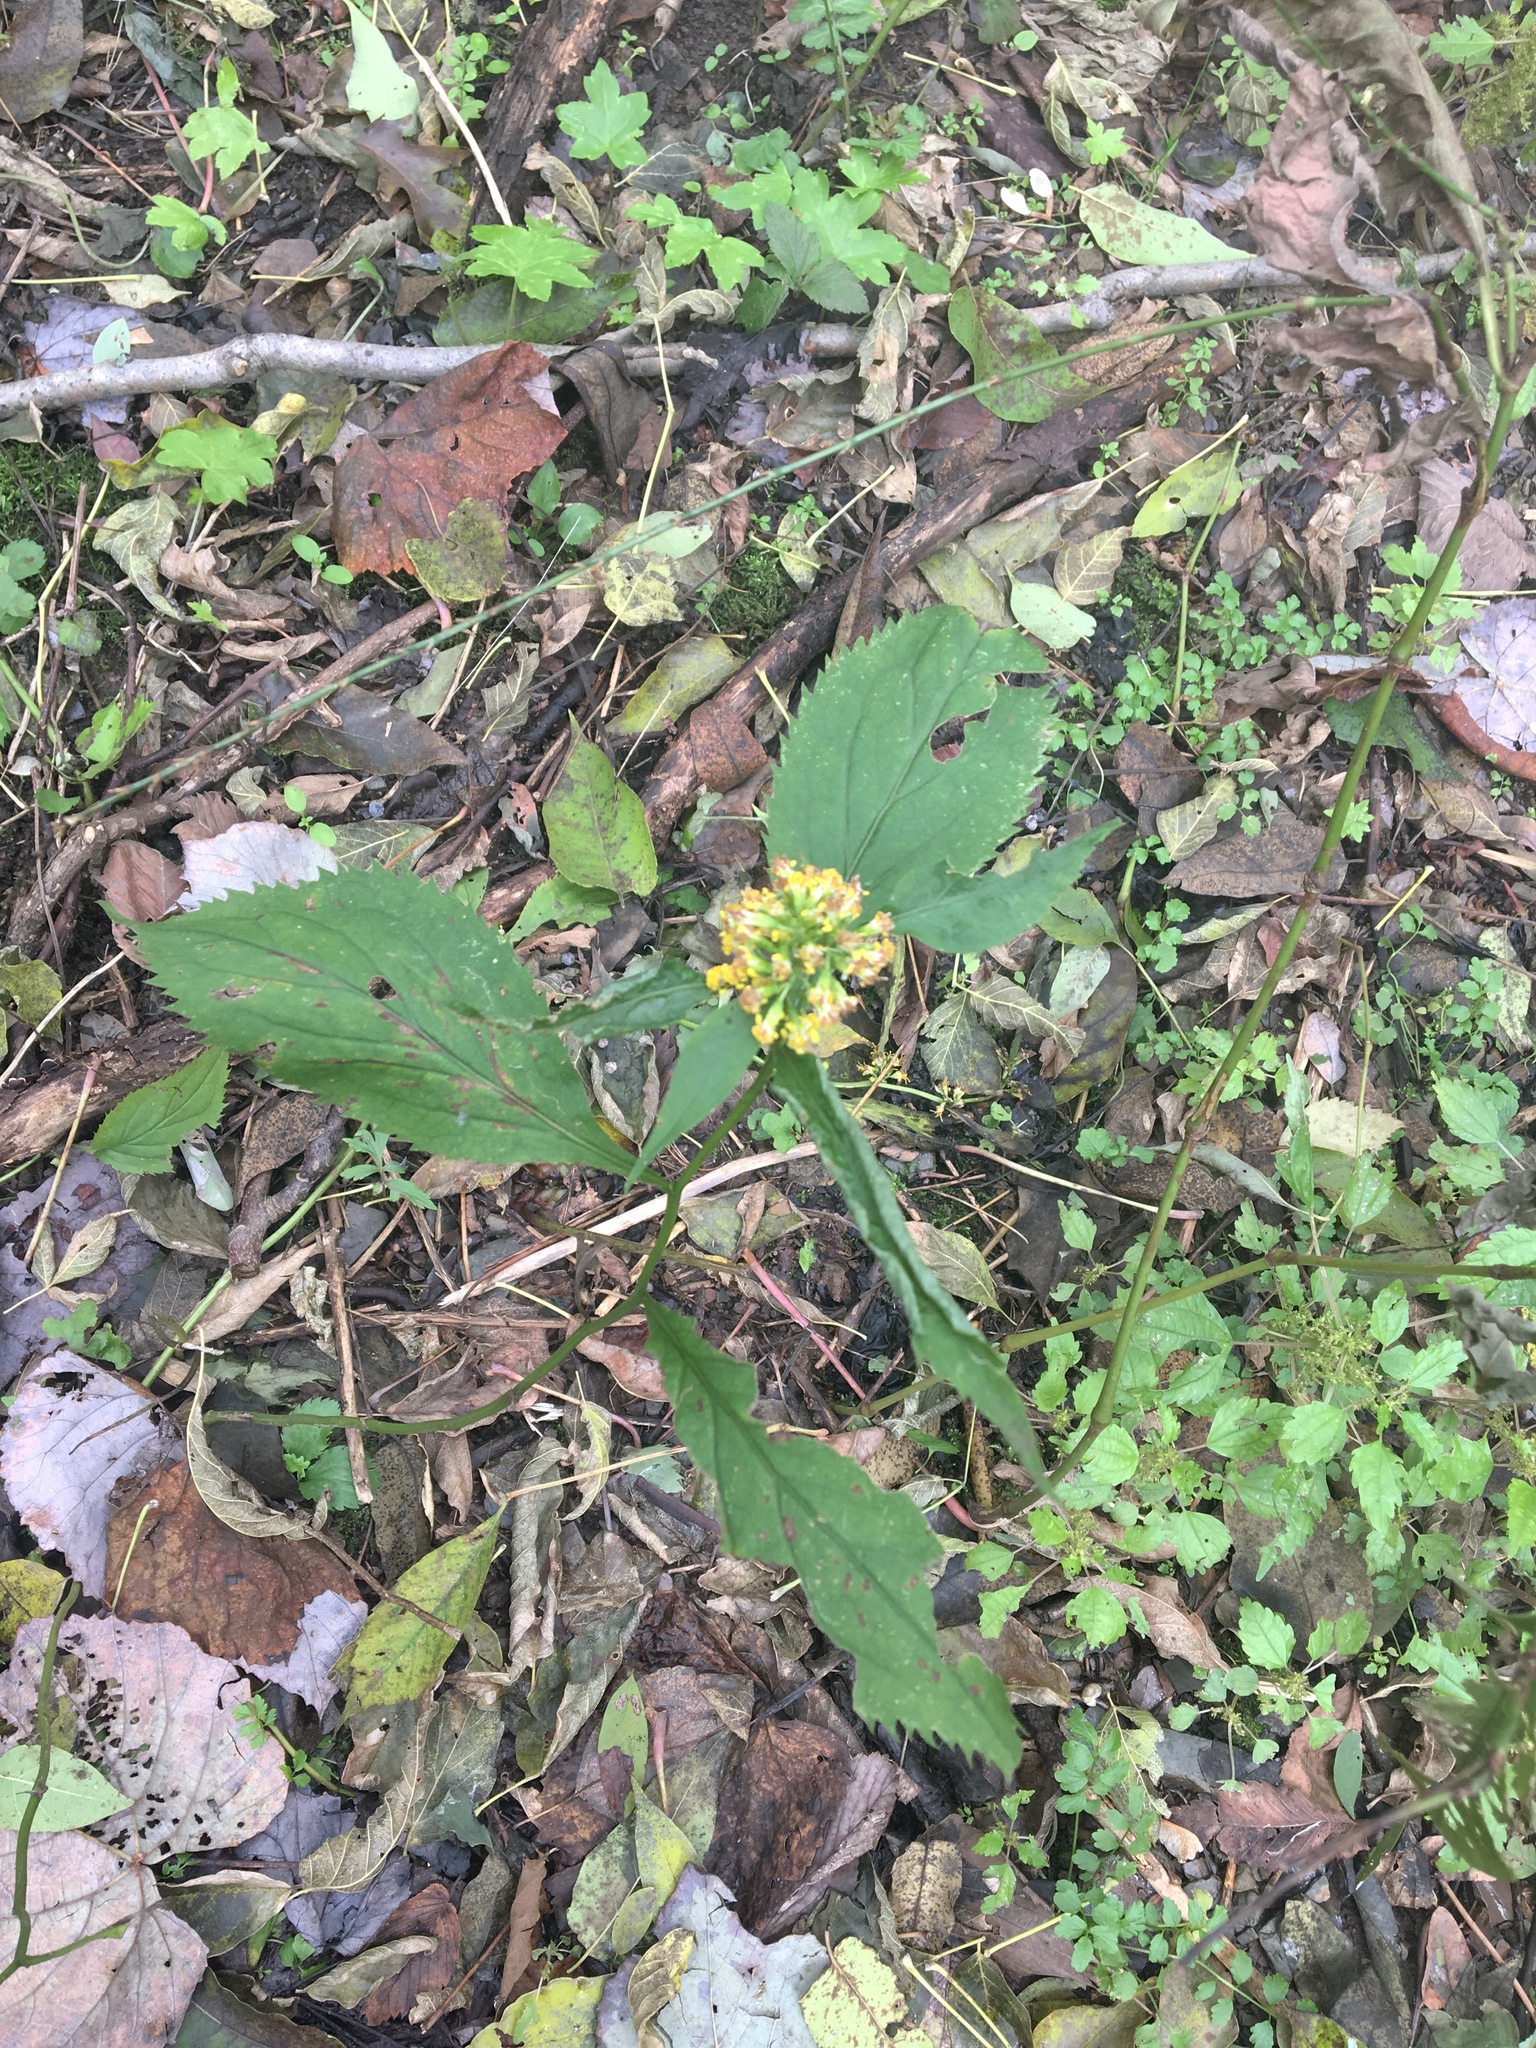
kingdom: Plantae
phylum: Tracheophyta
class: Magnoliopsida
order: Asterales
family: Asteraceae
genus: Solidago
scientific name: Solidago flexicaulis
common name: Zig-zag goldenrod
